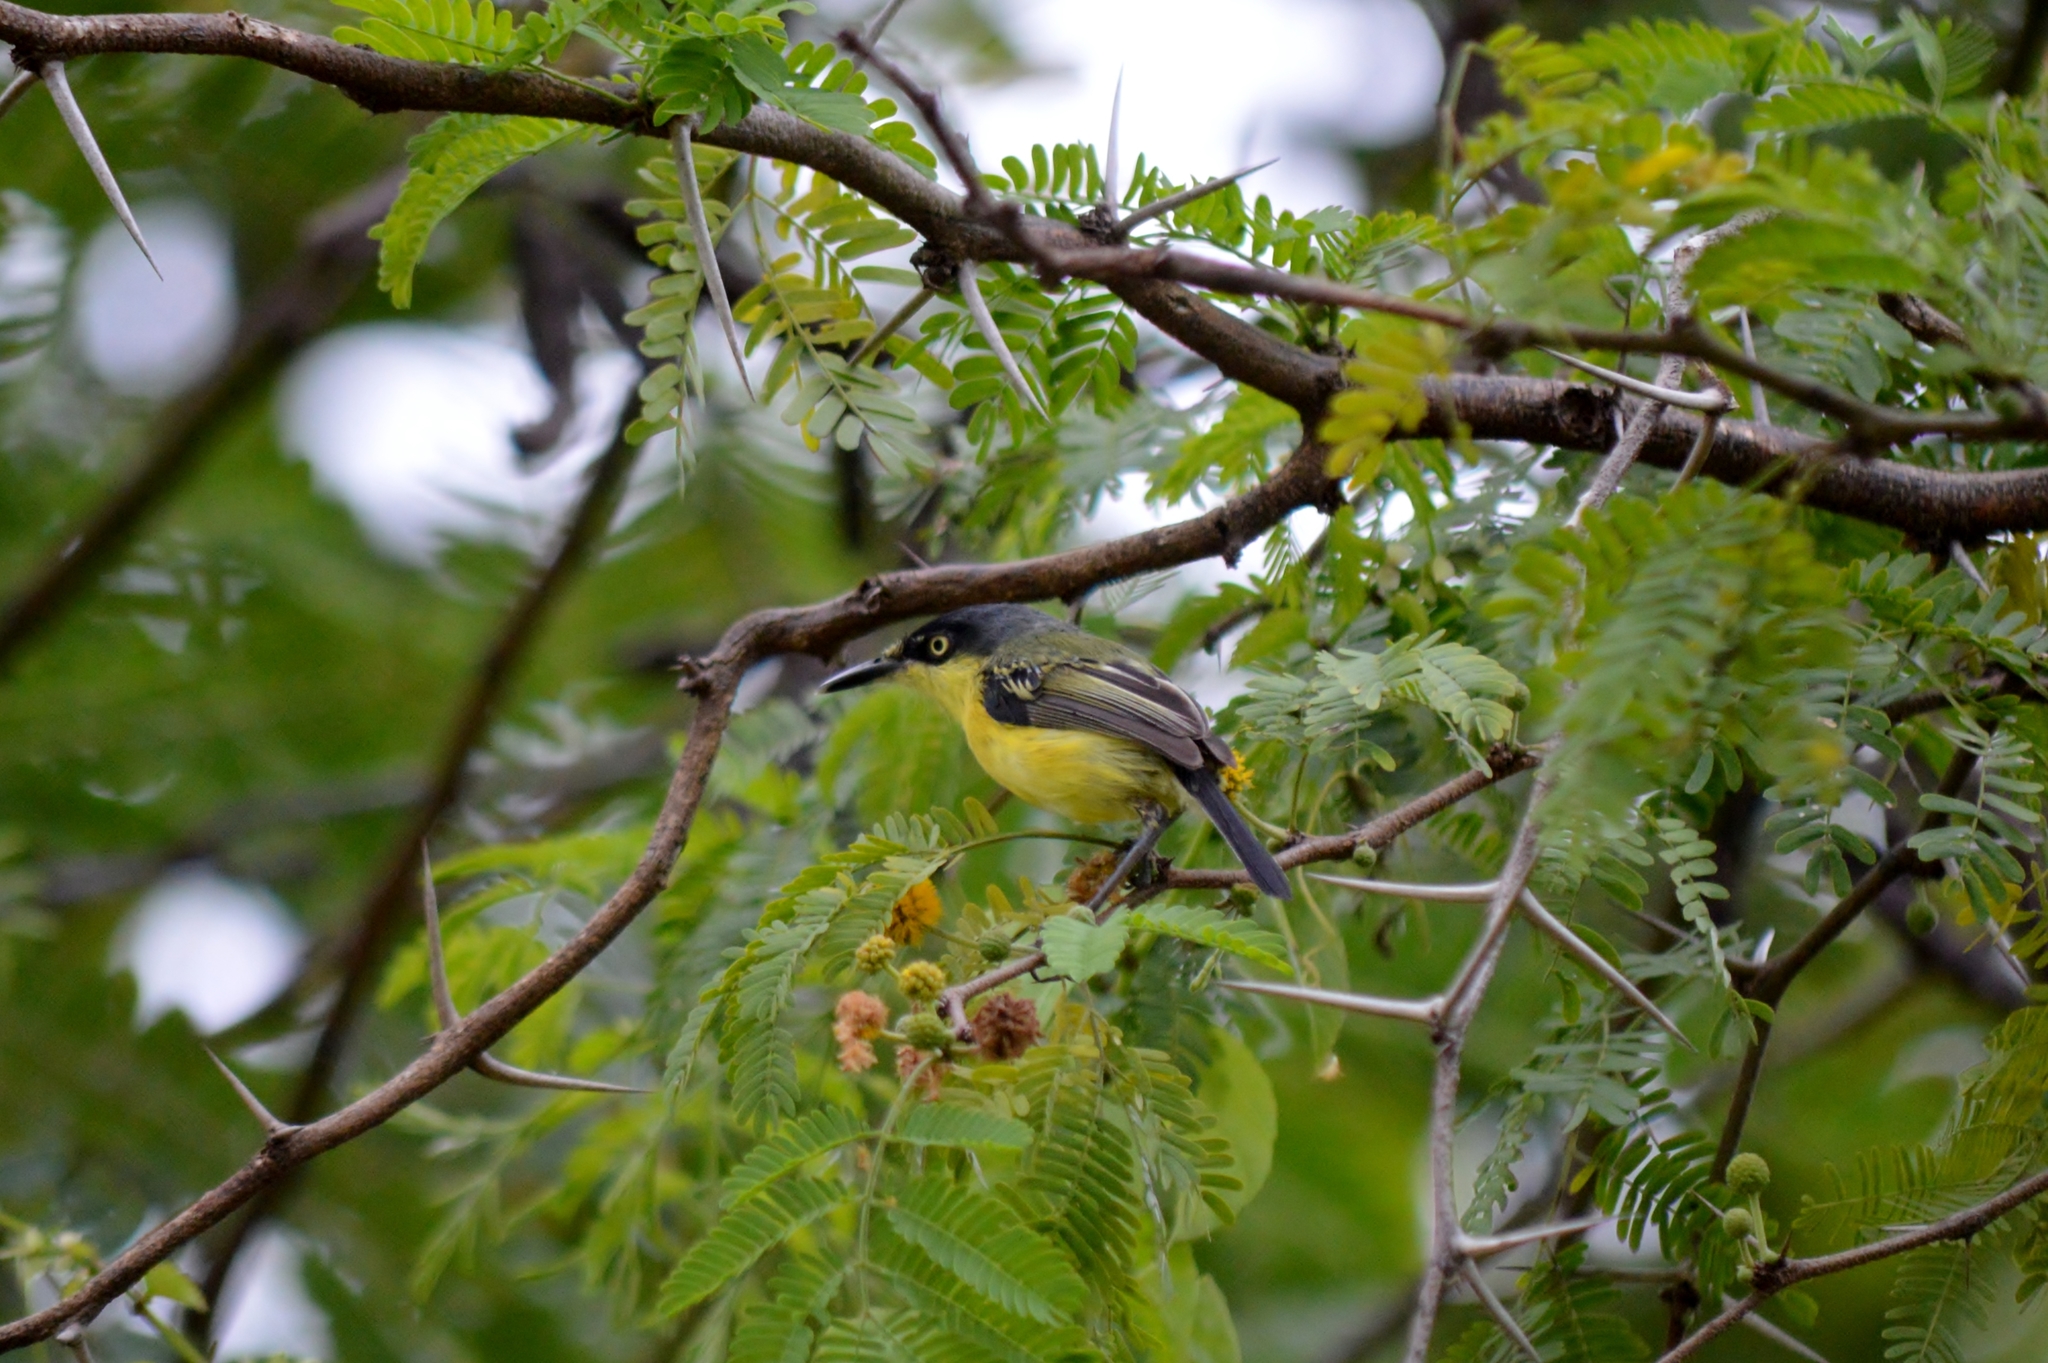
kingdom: Animalia
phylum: Chordata
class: Aves
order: Passeriformes
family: Tyrannidae
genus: Todirostrum
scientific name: Todirostrum cinereum
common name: Common tody-flycatcher
